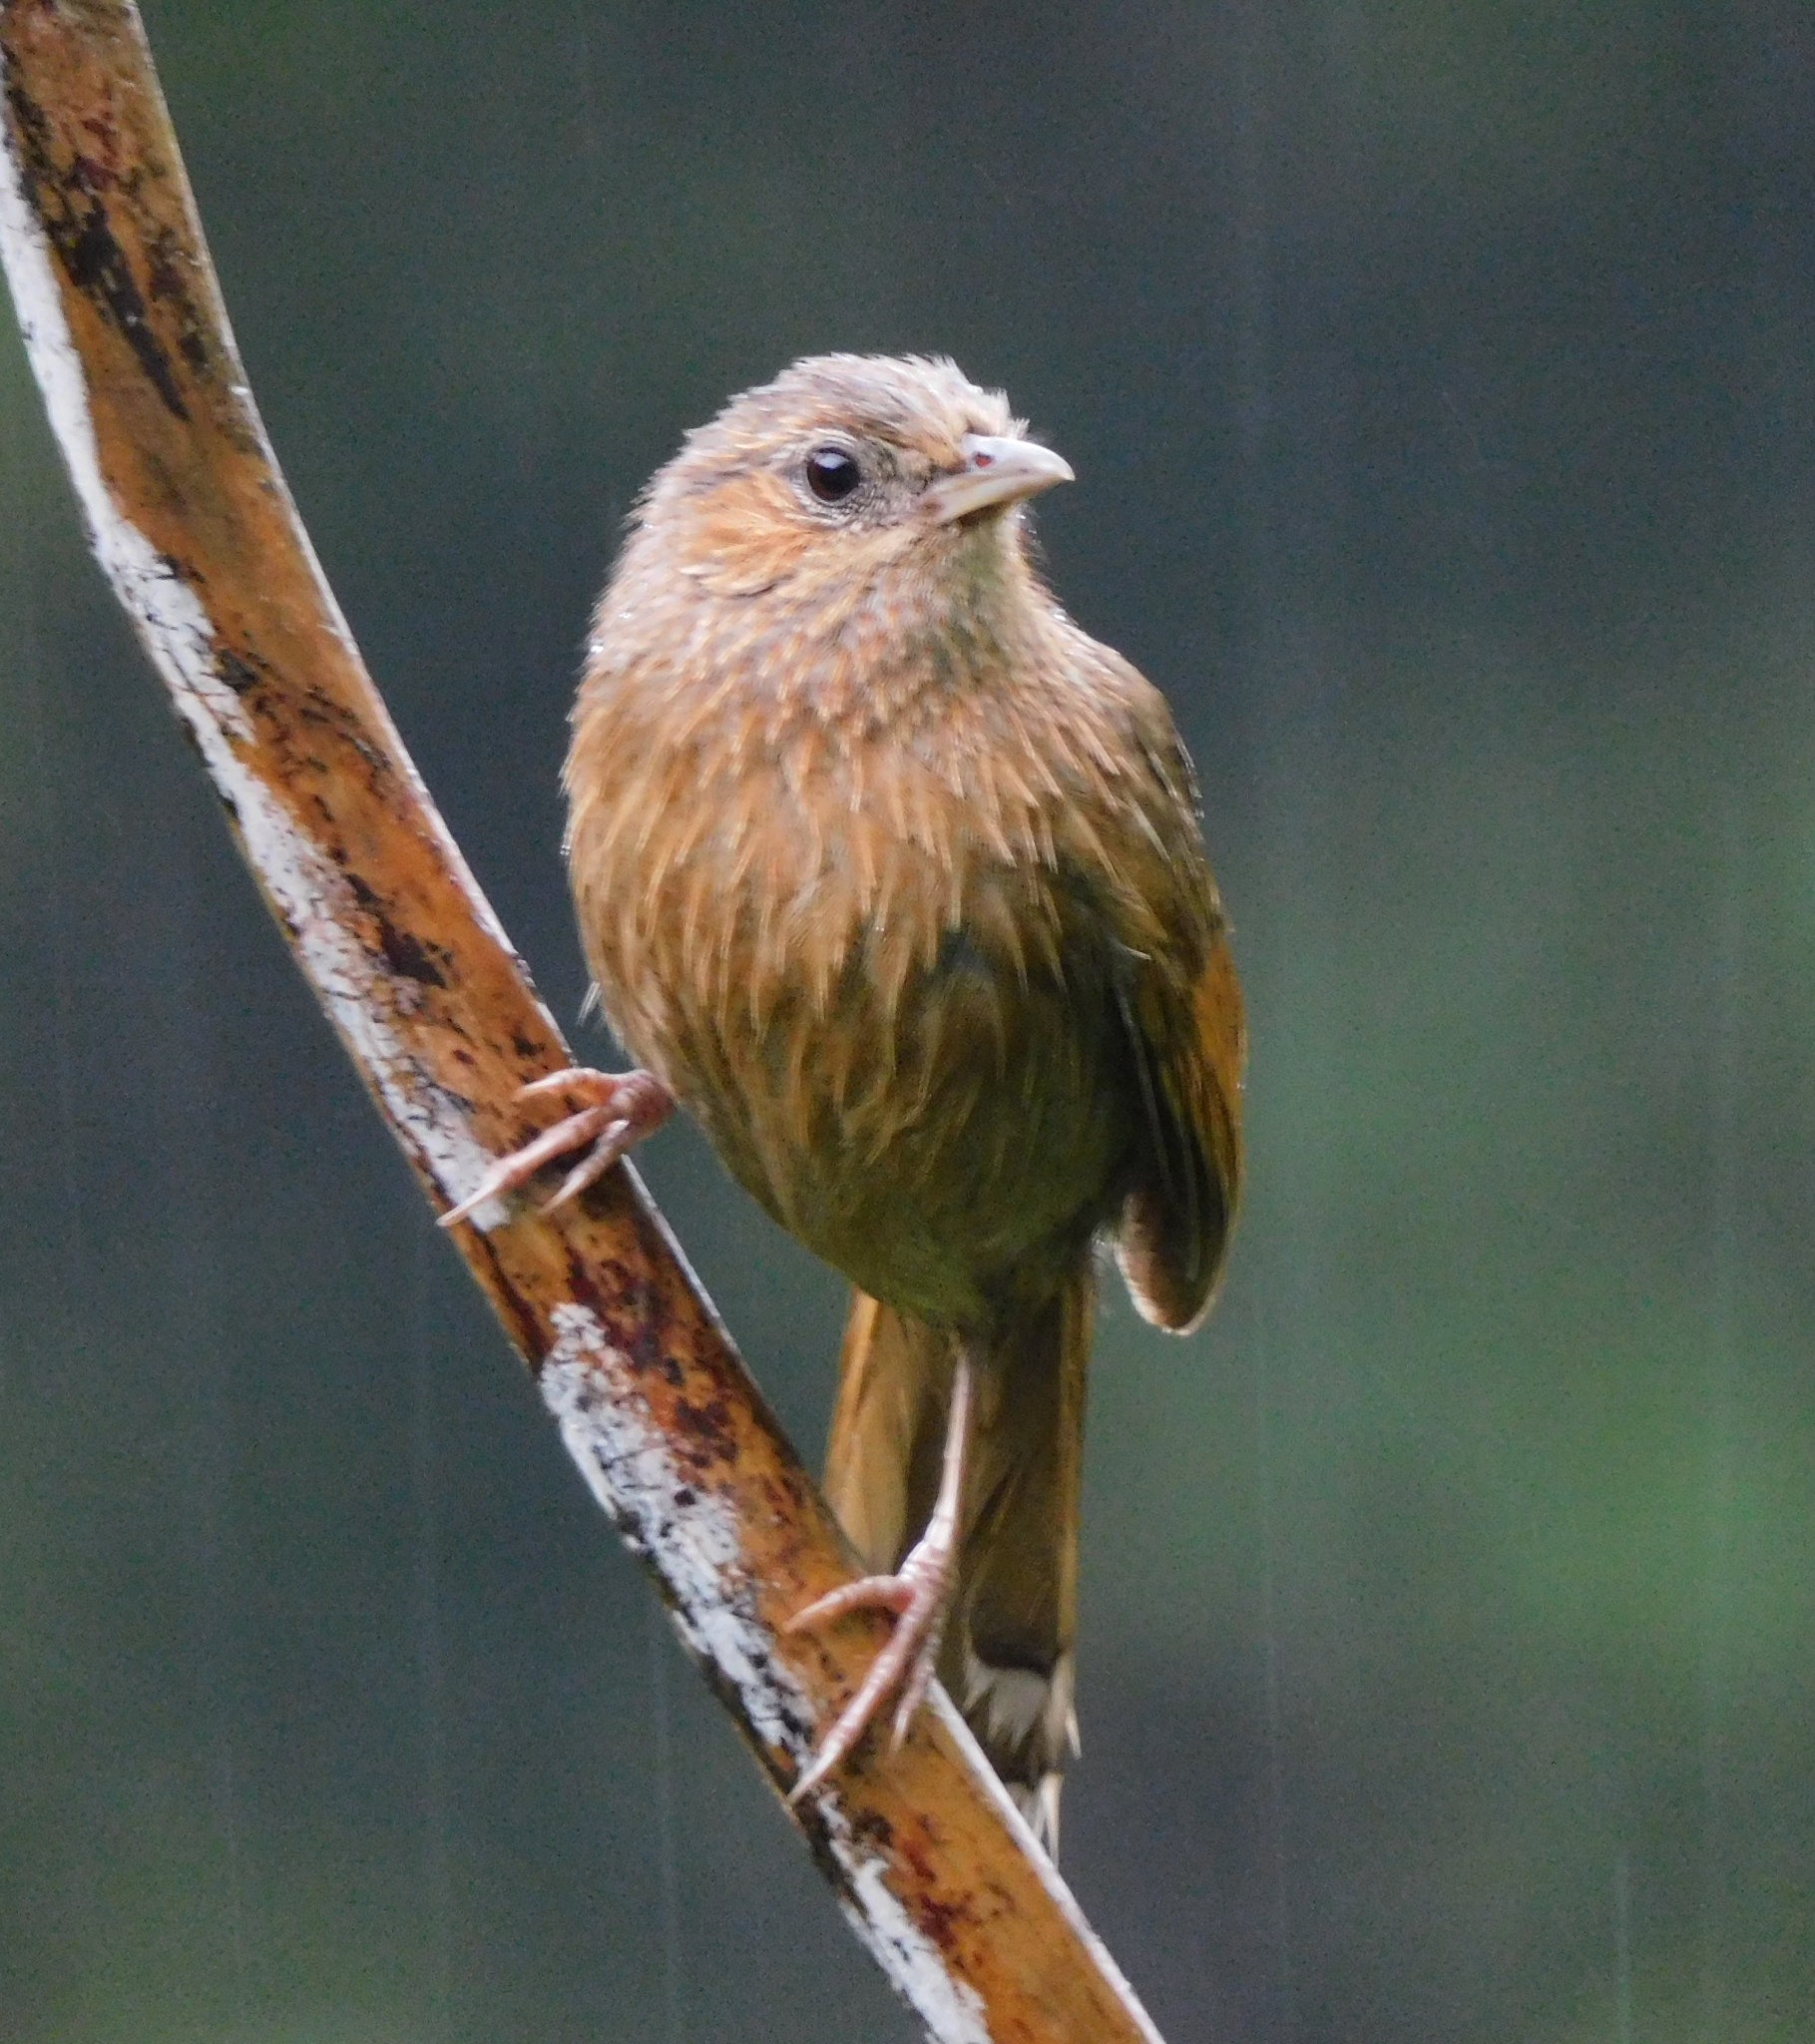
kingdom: Animalia
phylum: Chordata
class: Aves
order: Passeriformes
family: Leiothrichidae
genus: Trochalopteron
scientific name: Trochalopteron lineatum
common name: Streaked laughingthrush
